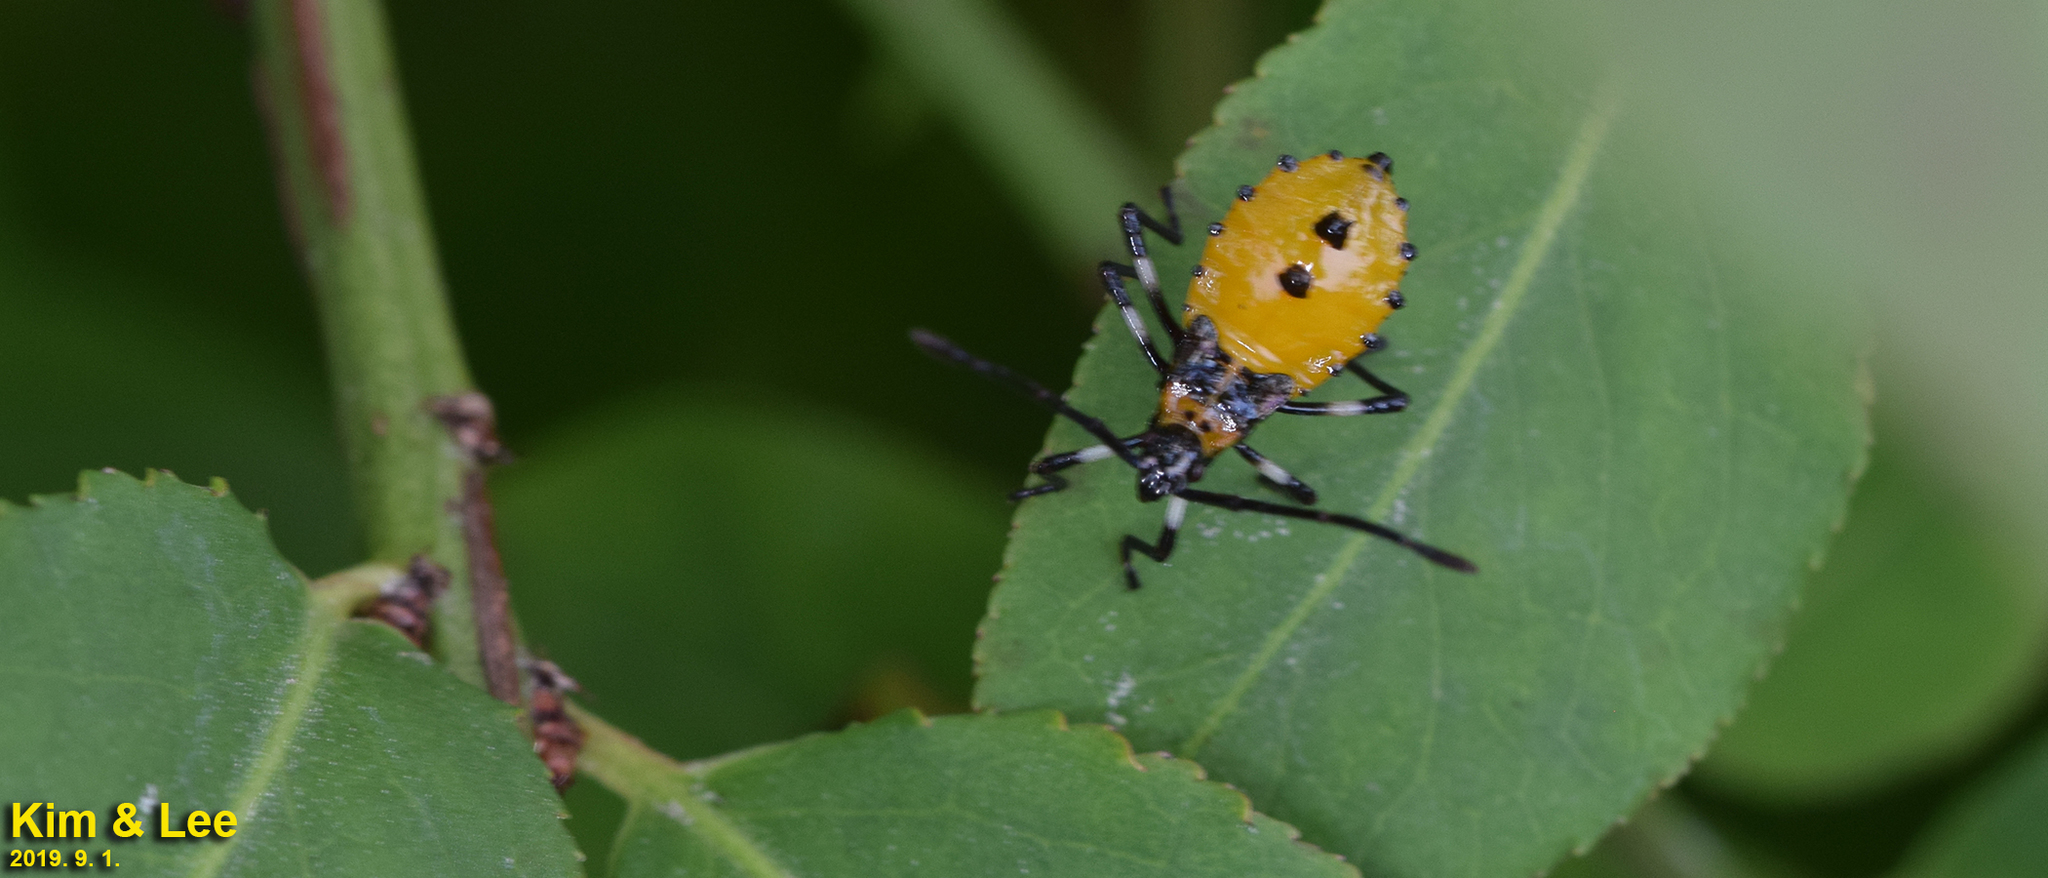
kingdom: Animalia
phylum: Arthropoda
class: Insecta
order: Hemiptera
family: Coreidae
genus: Plinachtus
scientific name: Plinachtus bicoloripes
